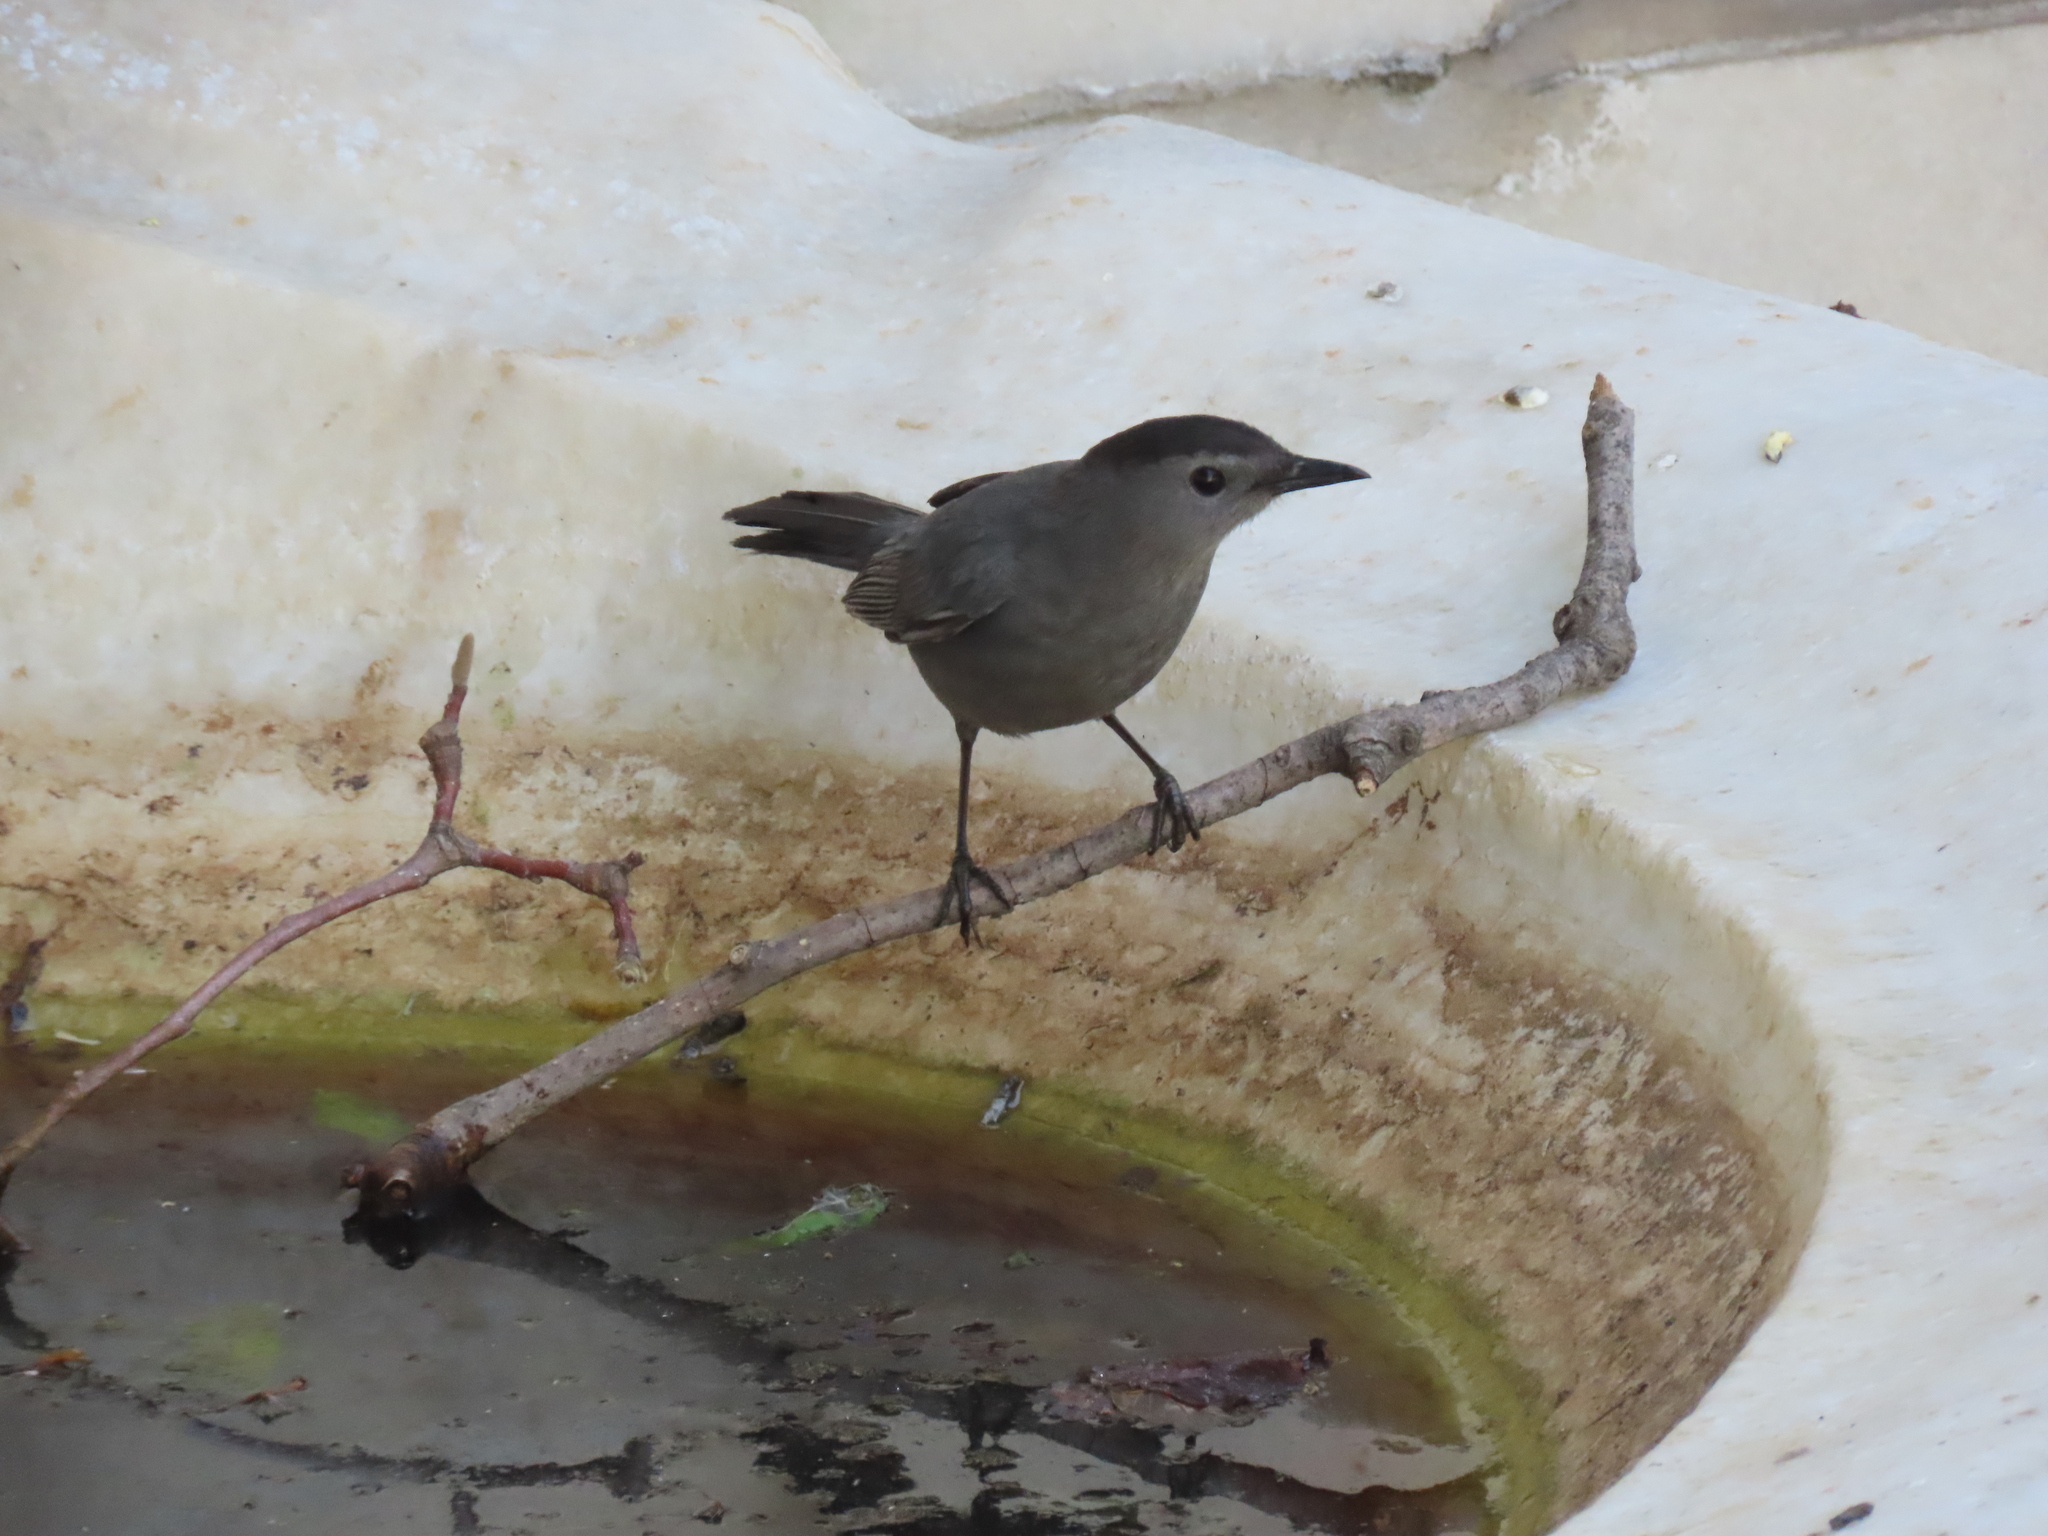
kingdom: Animalia
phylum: Chordata
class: Aves
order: Passeriformes
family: Mimidae
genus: Dumetella
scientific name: Dumetella carolinensis
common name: Gray catbird
